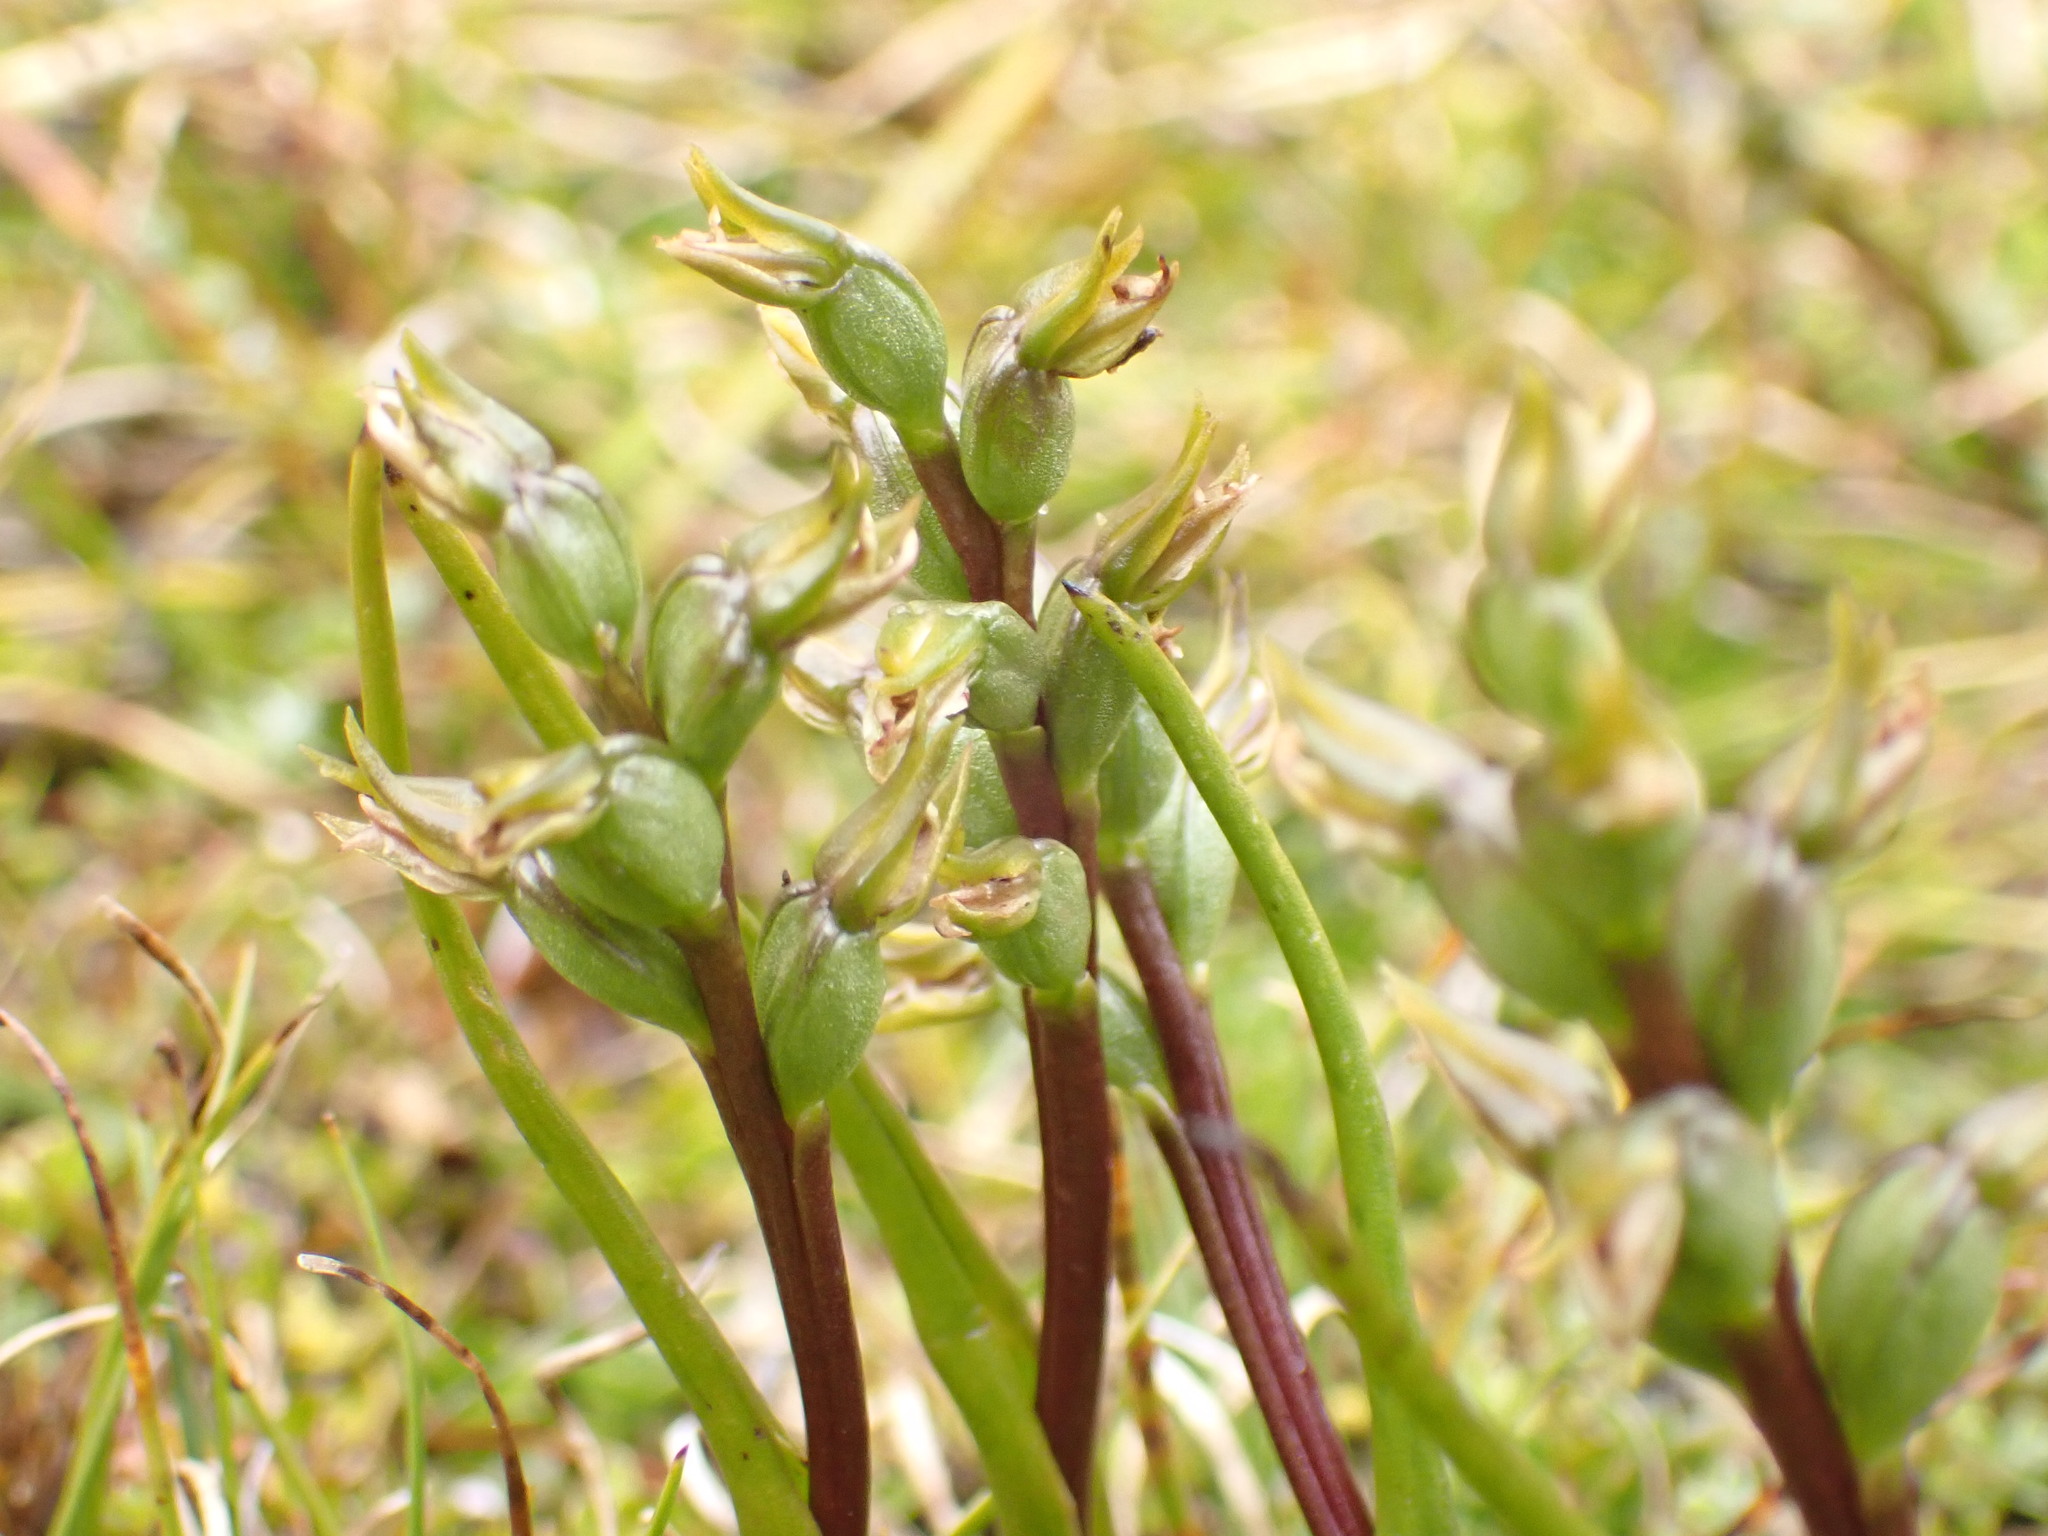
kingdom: Plantae
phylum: Tracheophyta
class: Liliopsida
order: Asparagales
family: Orchidaceae
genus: Prasophyllum
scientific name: Prasophyllum colensoi
